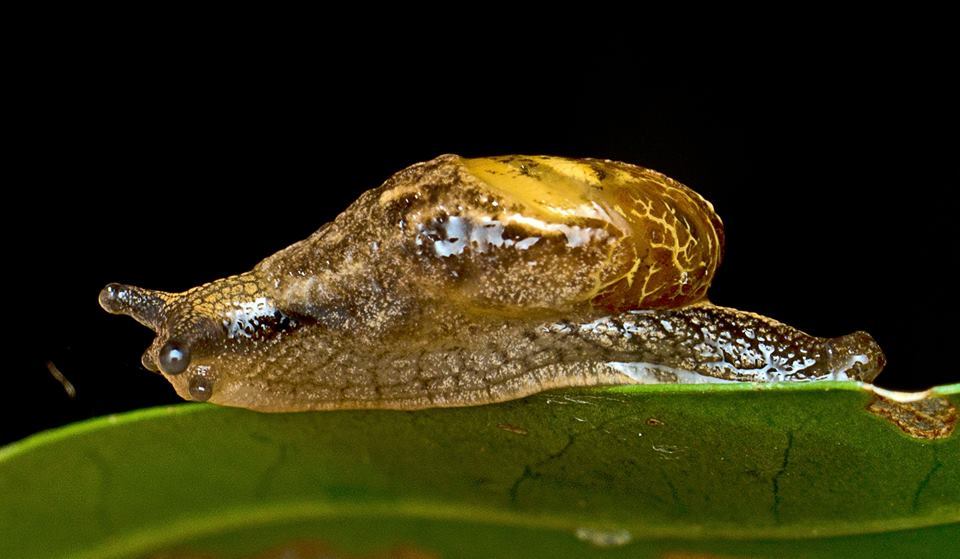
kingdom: Animalia
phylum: Mollusca
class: Gastropoda
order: Stylommatophora
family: Helicarionidae
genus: Ubiquitarion
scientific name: Ubiquitarion iridis
